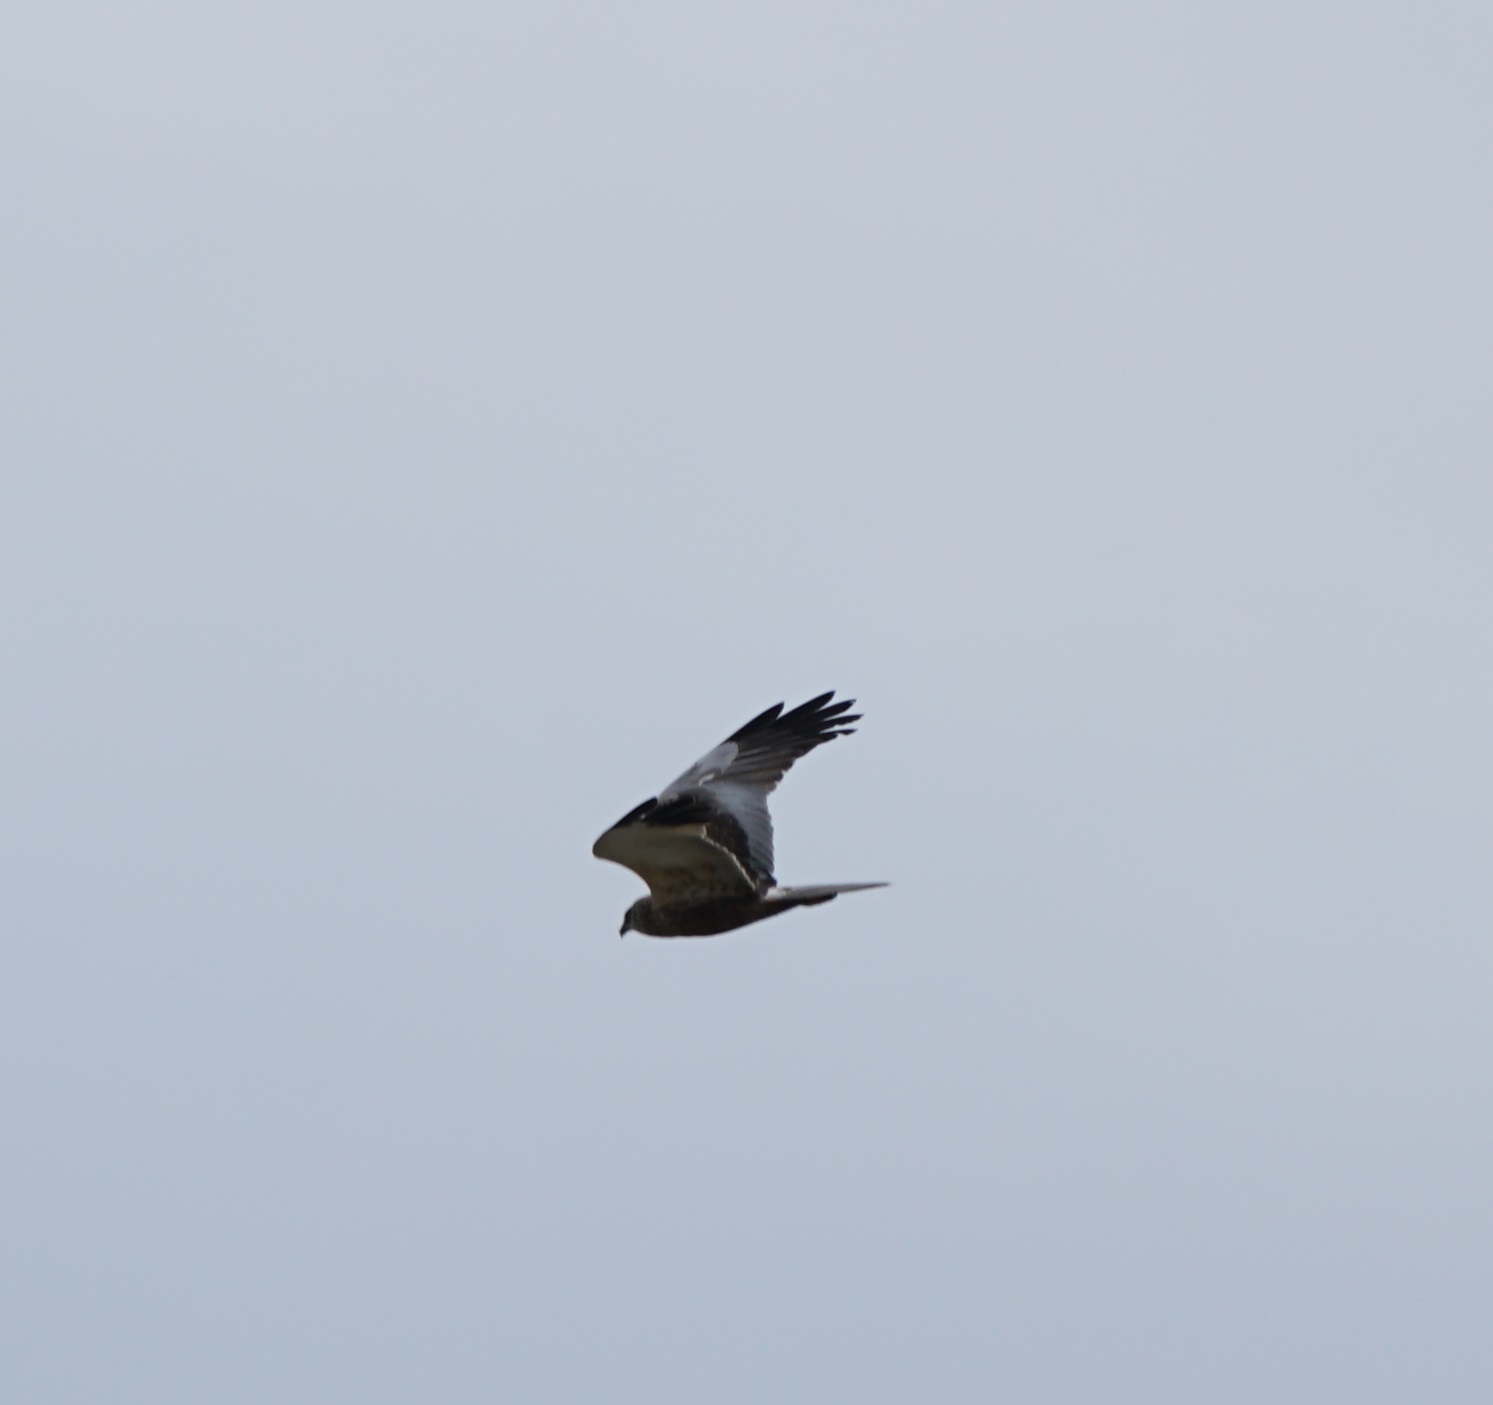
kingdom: Animalia
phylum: Chordata
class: Aves
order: Accipitriformes
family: Accipitridae
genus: Circus
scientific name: Circus aeruginosus
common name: Western marsh harrier
